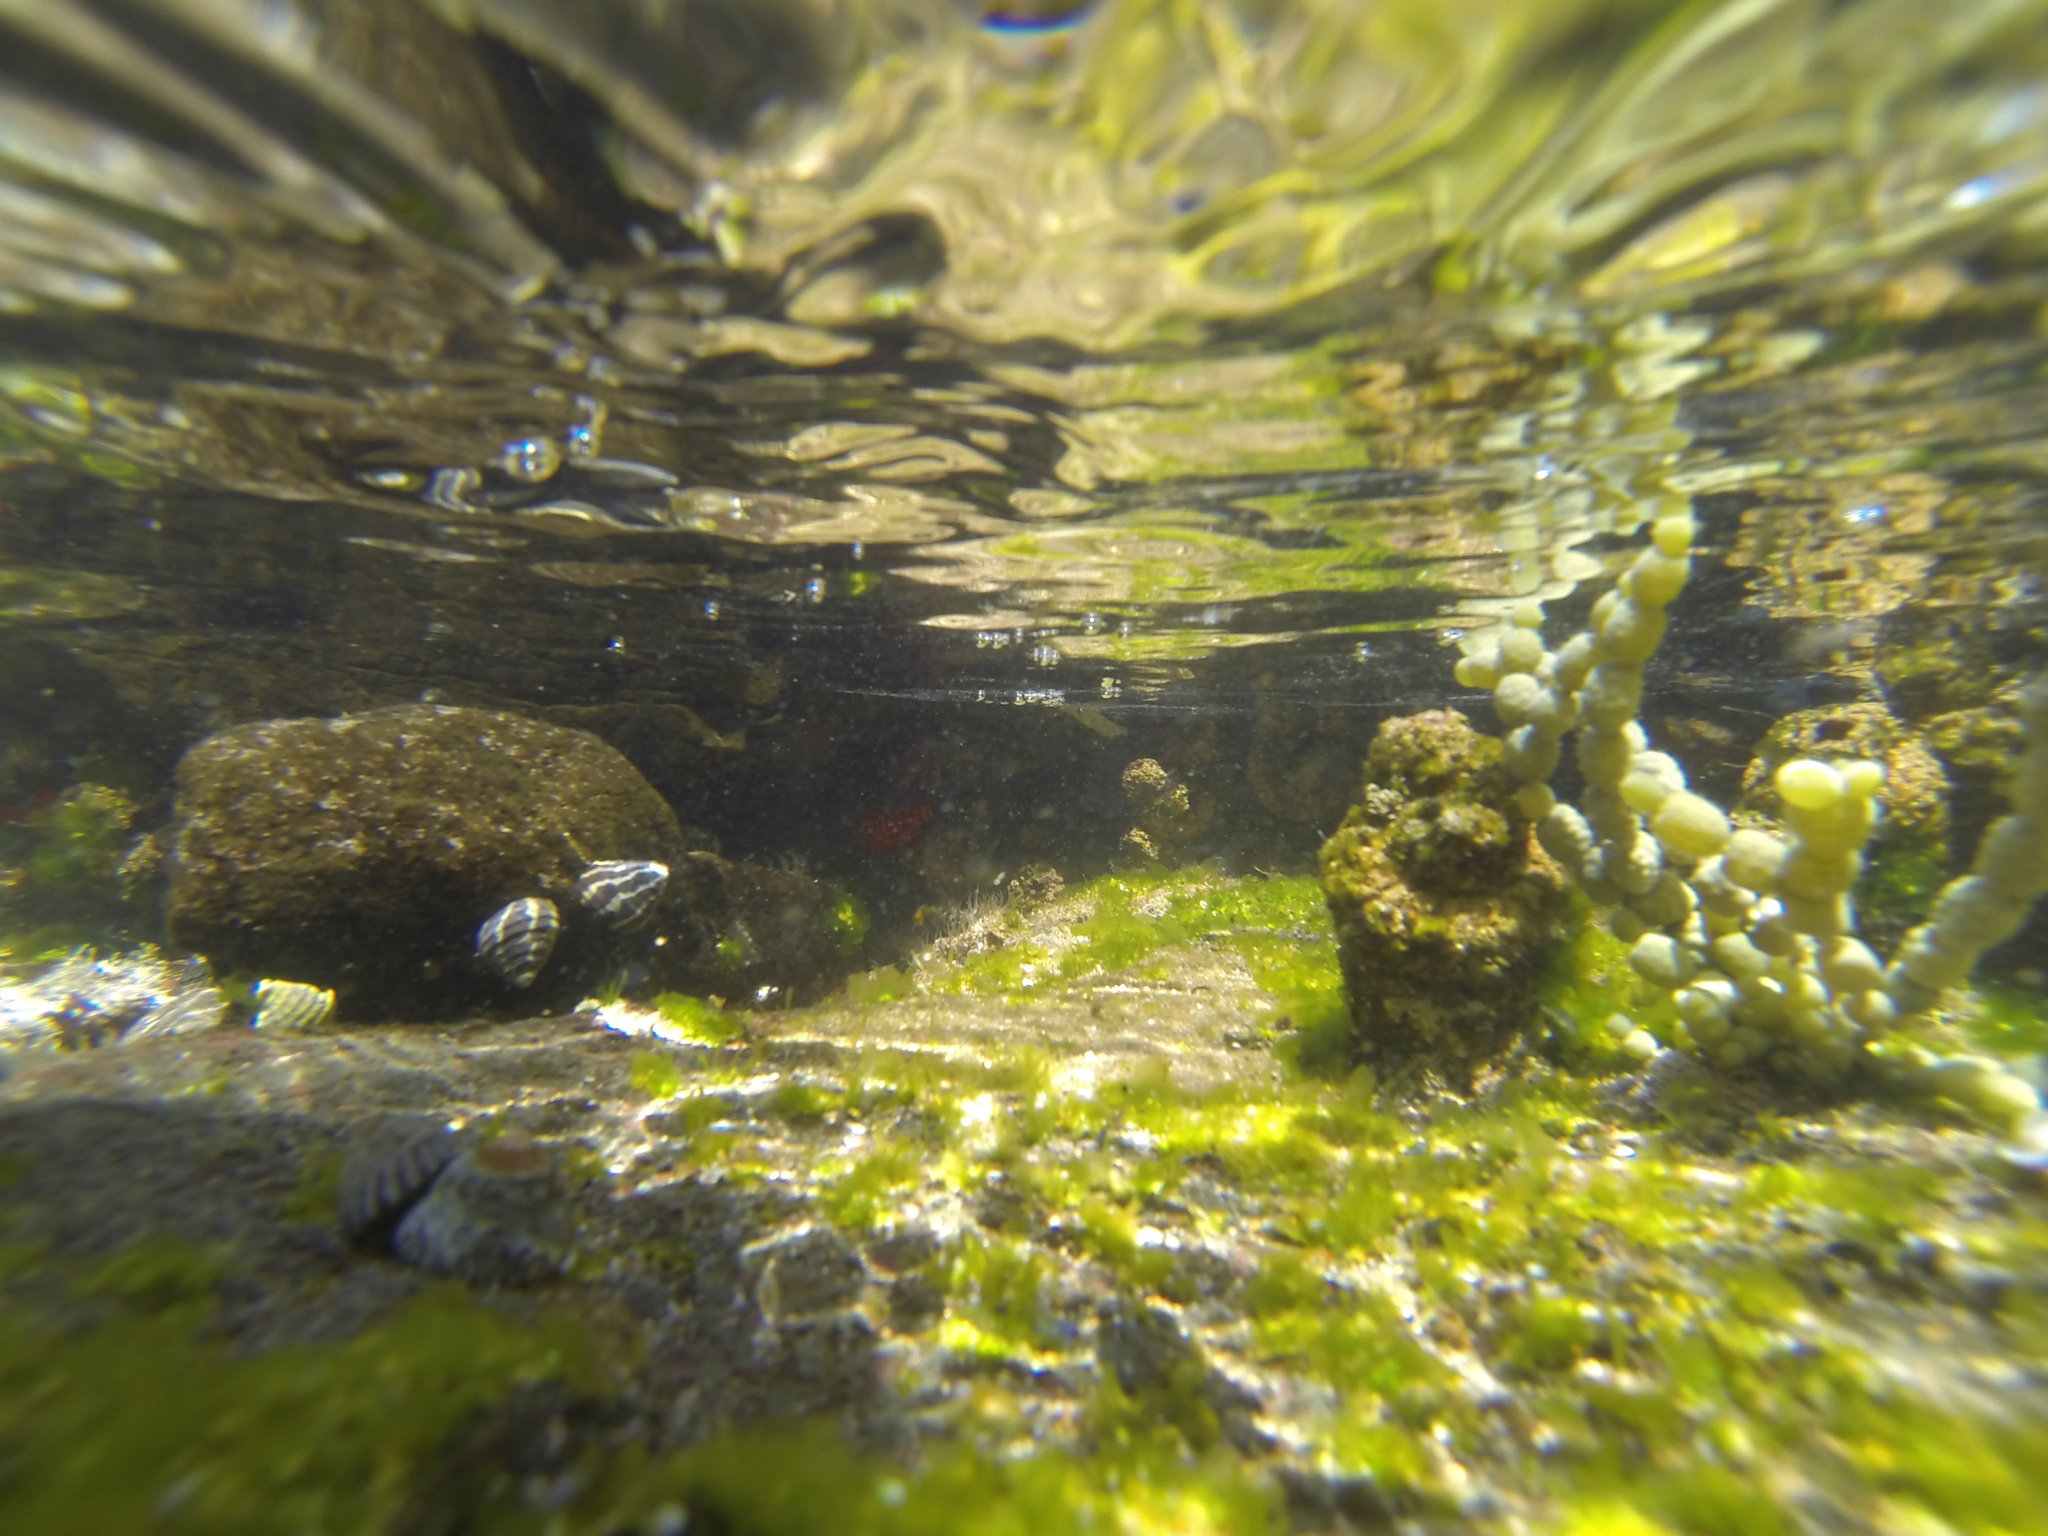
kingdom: Animalia
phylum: Mollusca
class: Gastropoda
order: Trochida
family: Trochidae
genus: Austrocochlea
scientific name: Austrocochlea porcata
